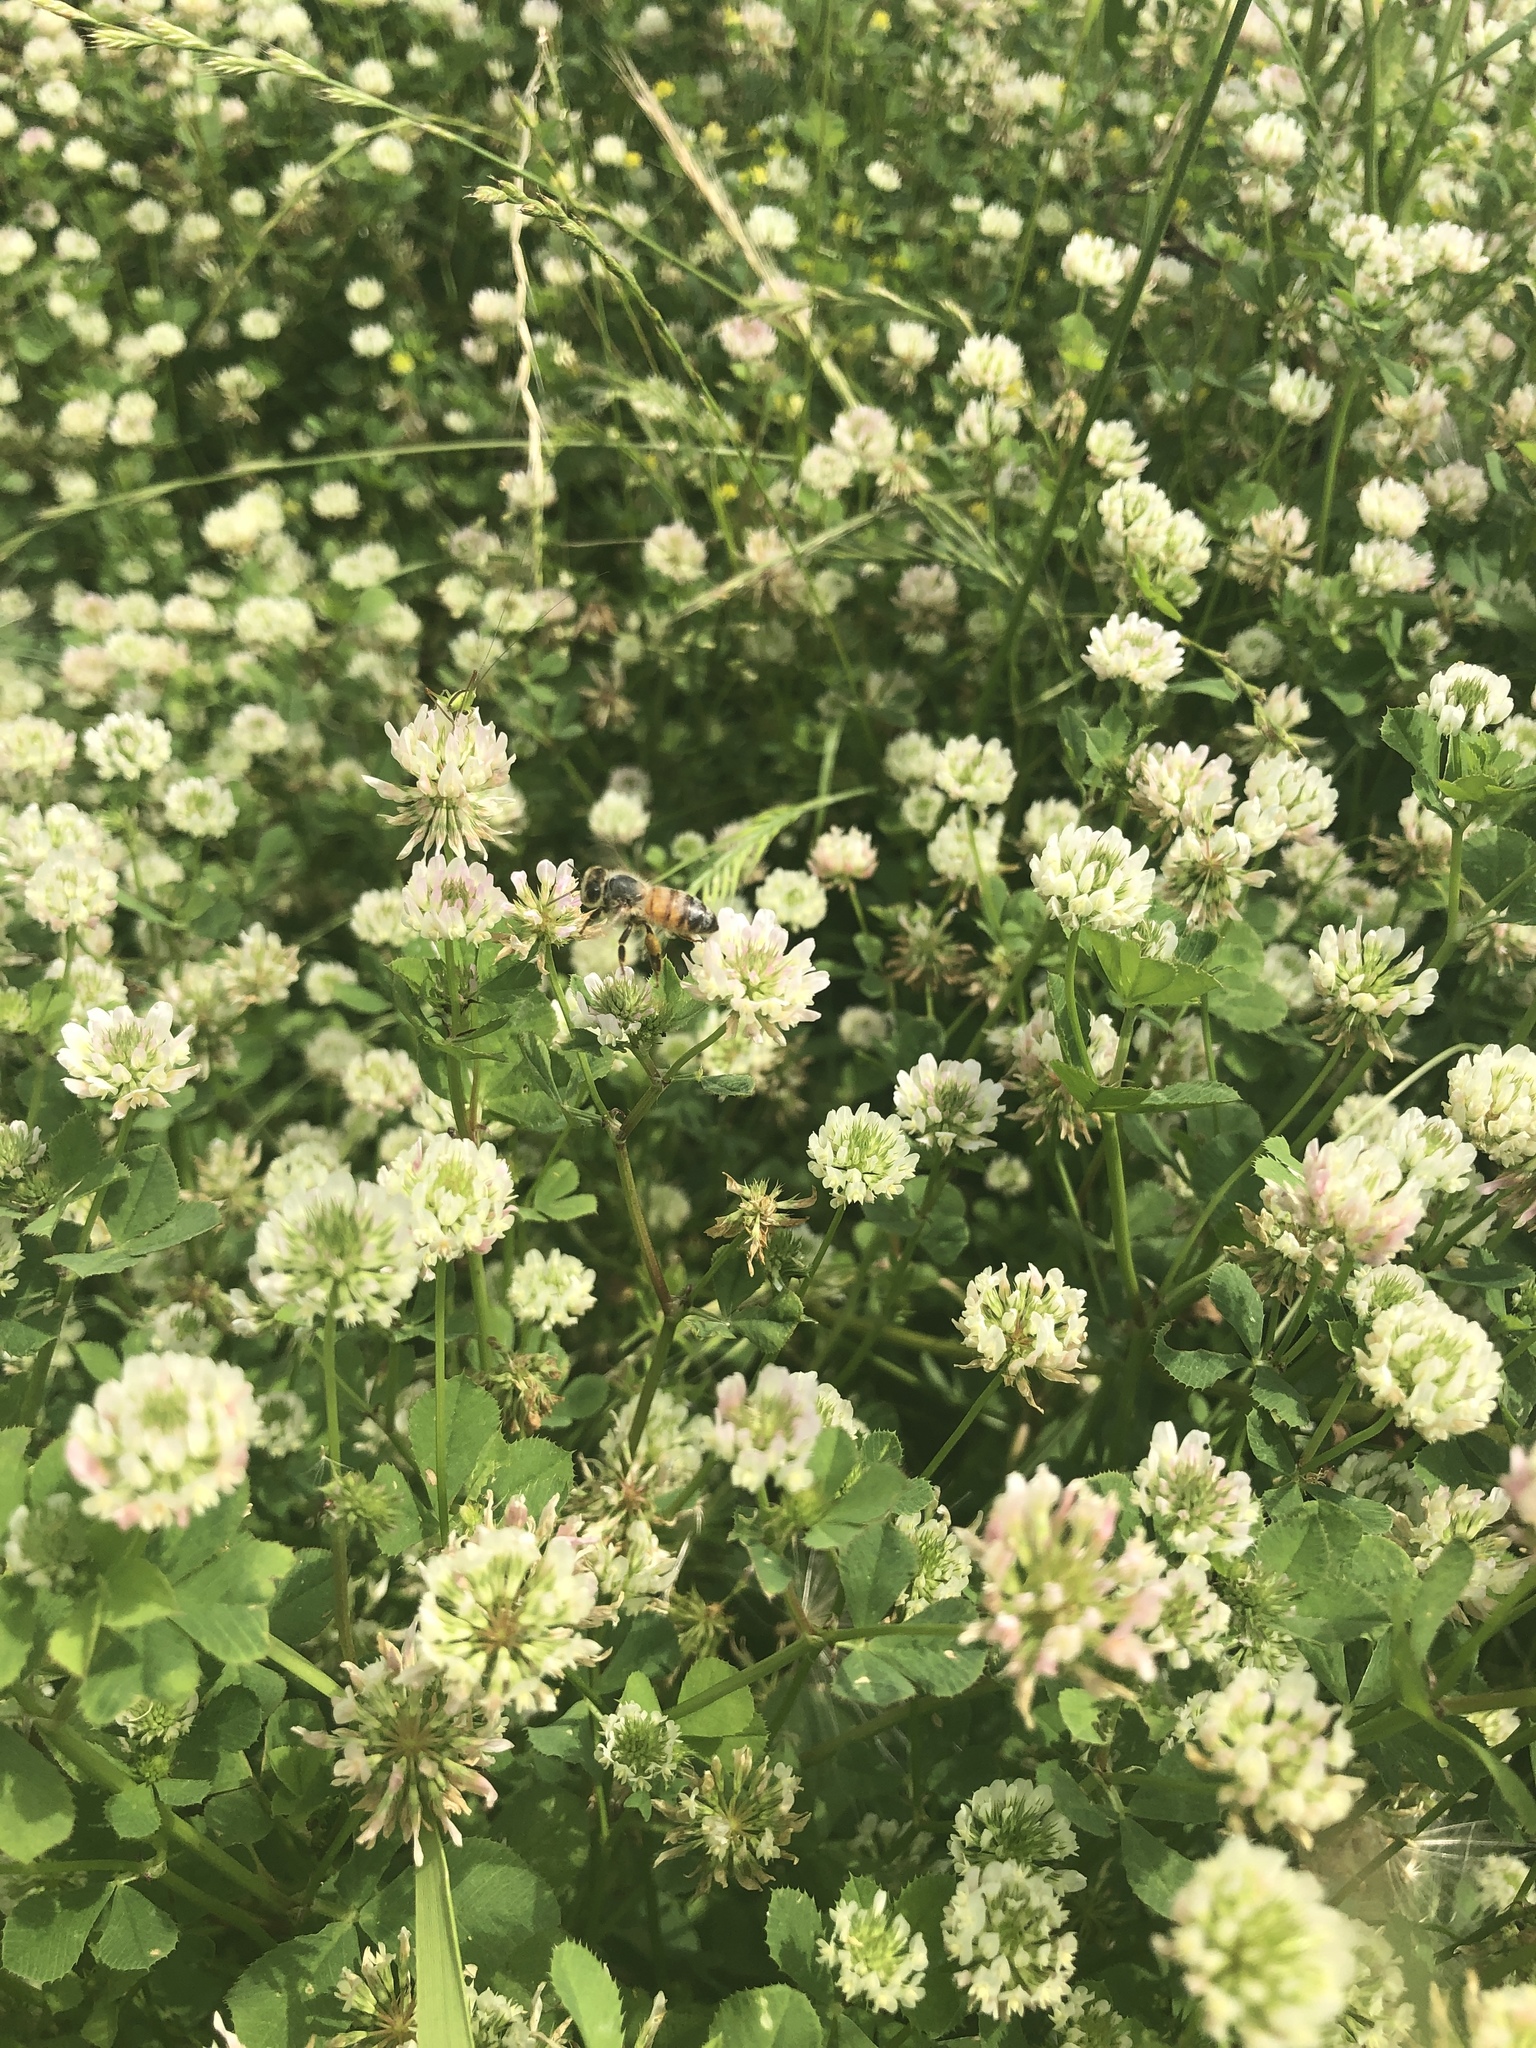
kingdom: Plantae
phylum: Tracheophyta
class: Magnoliopsida
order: Fabales
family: Fabaceae
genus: Trifolium
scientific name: Trifolium nigrescens
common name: Small white clover
